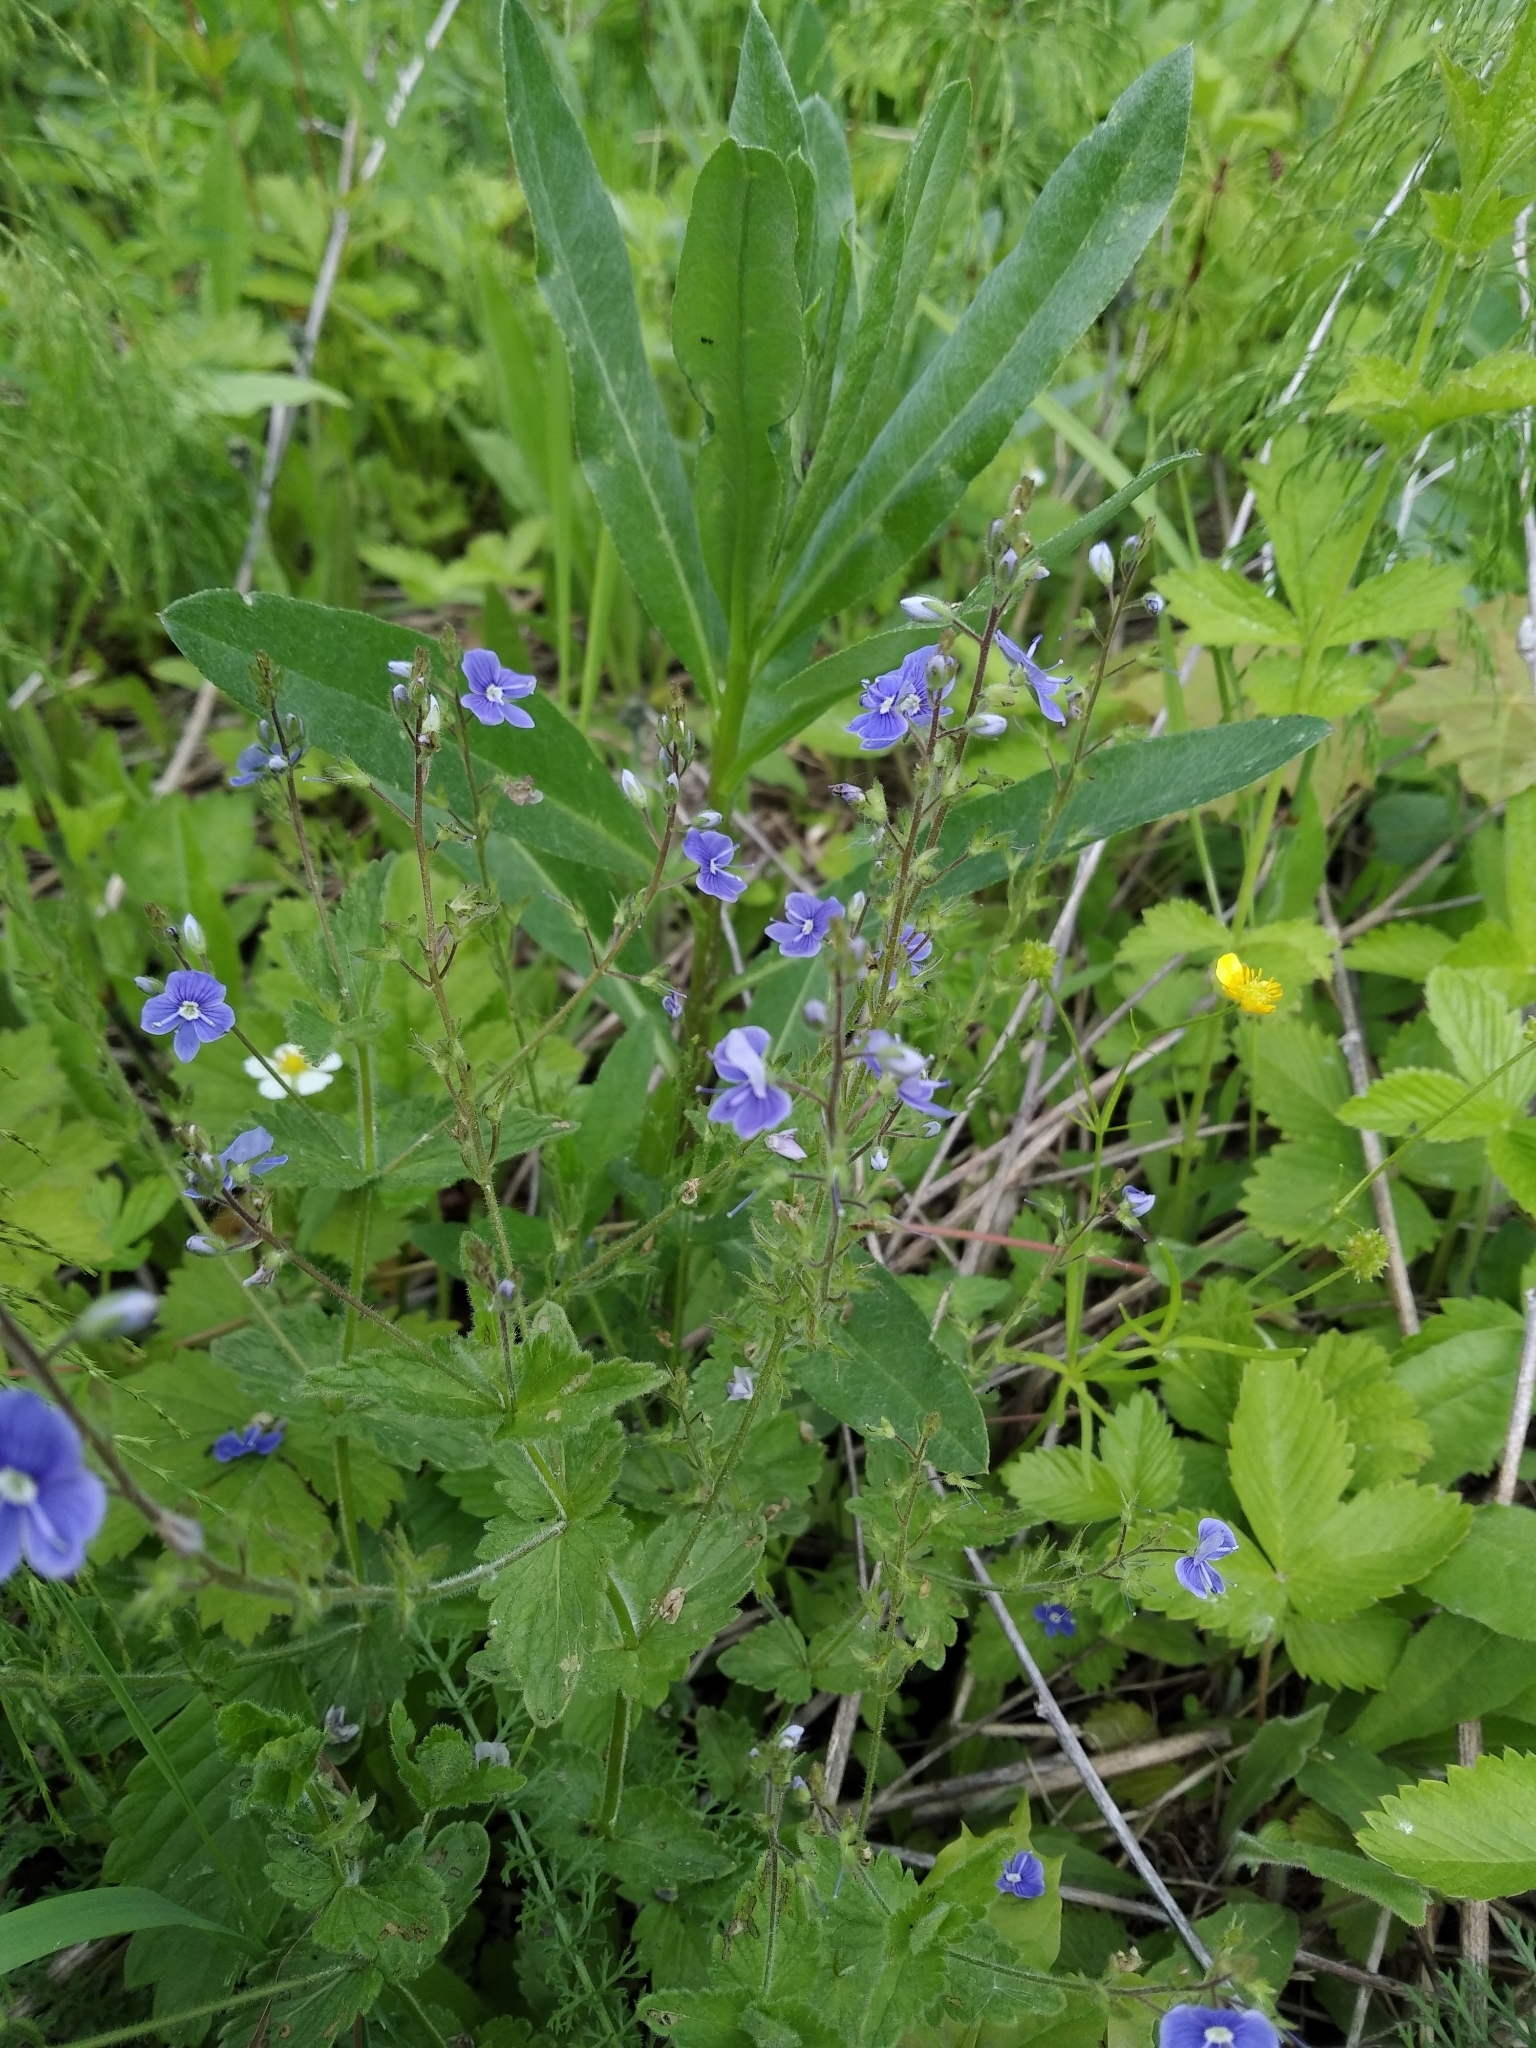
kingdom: Plantae
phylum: Tracheophyta
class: Magnoliopsida
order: Lamiales
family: Plantaginaceae
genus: Veronica
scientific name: Veronica chamaedrys
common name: Germander speedwell
